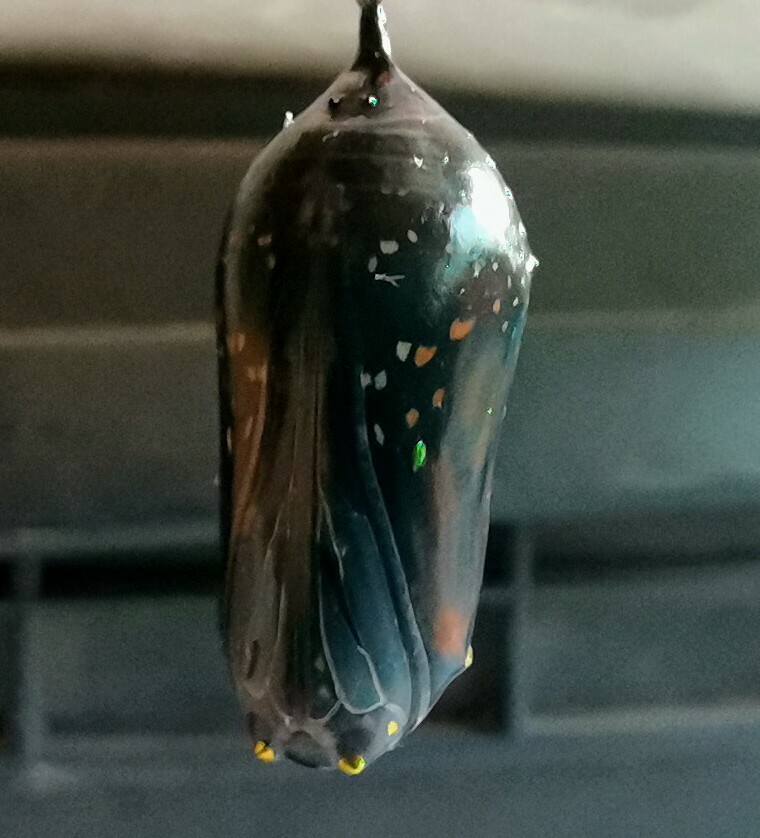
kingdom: Animalia
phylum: Arthropoda
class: Insecta
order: Lepidoptera
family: Nymphalidae
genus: Danaus
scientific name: Danaus plexippus
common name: Monarch
